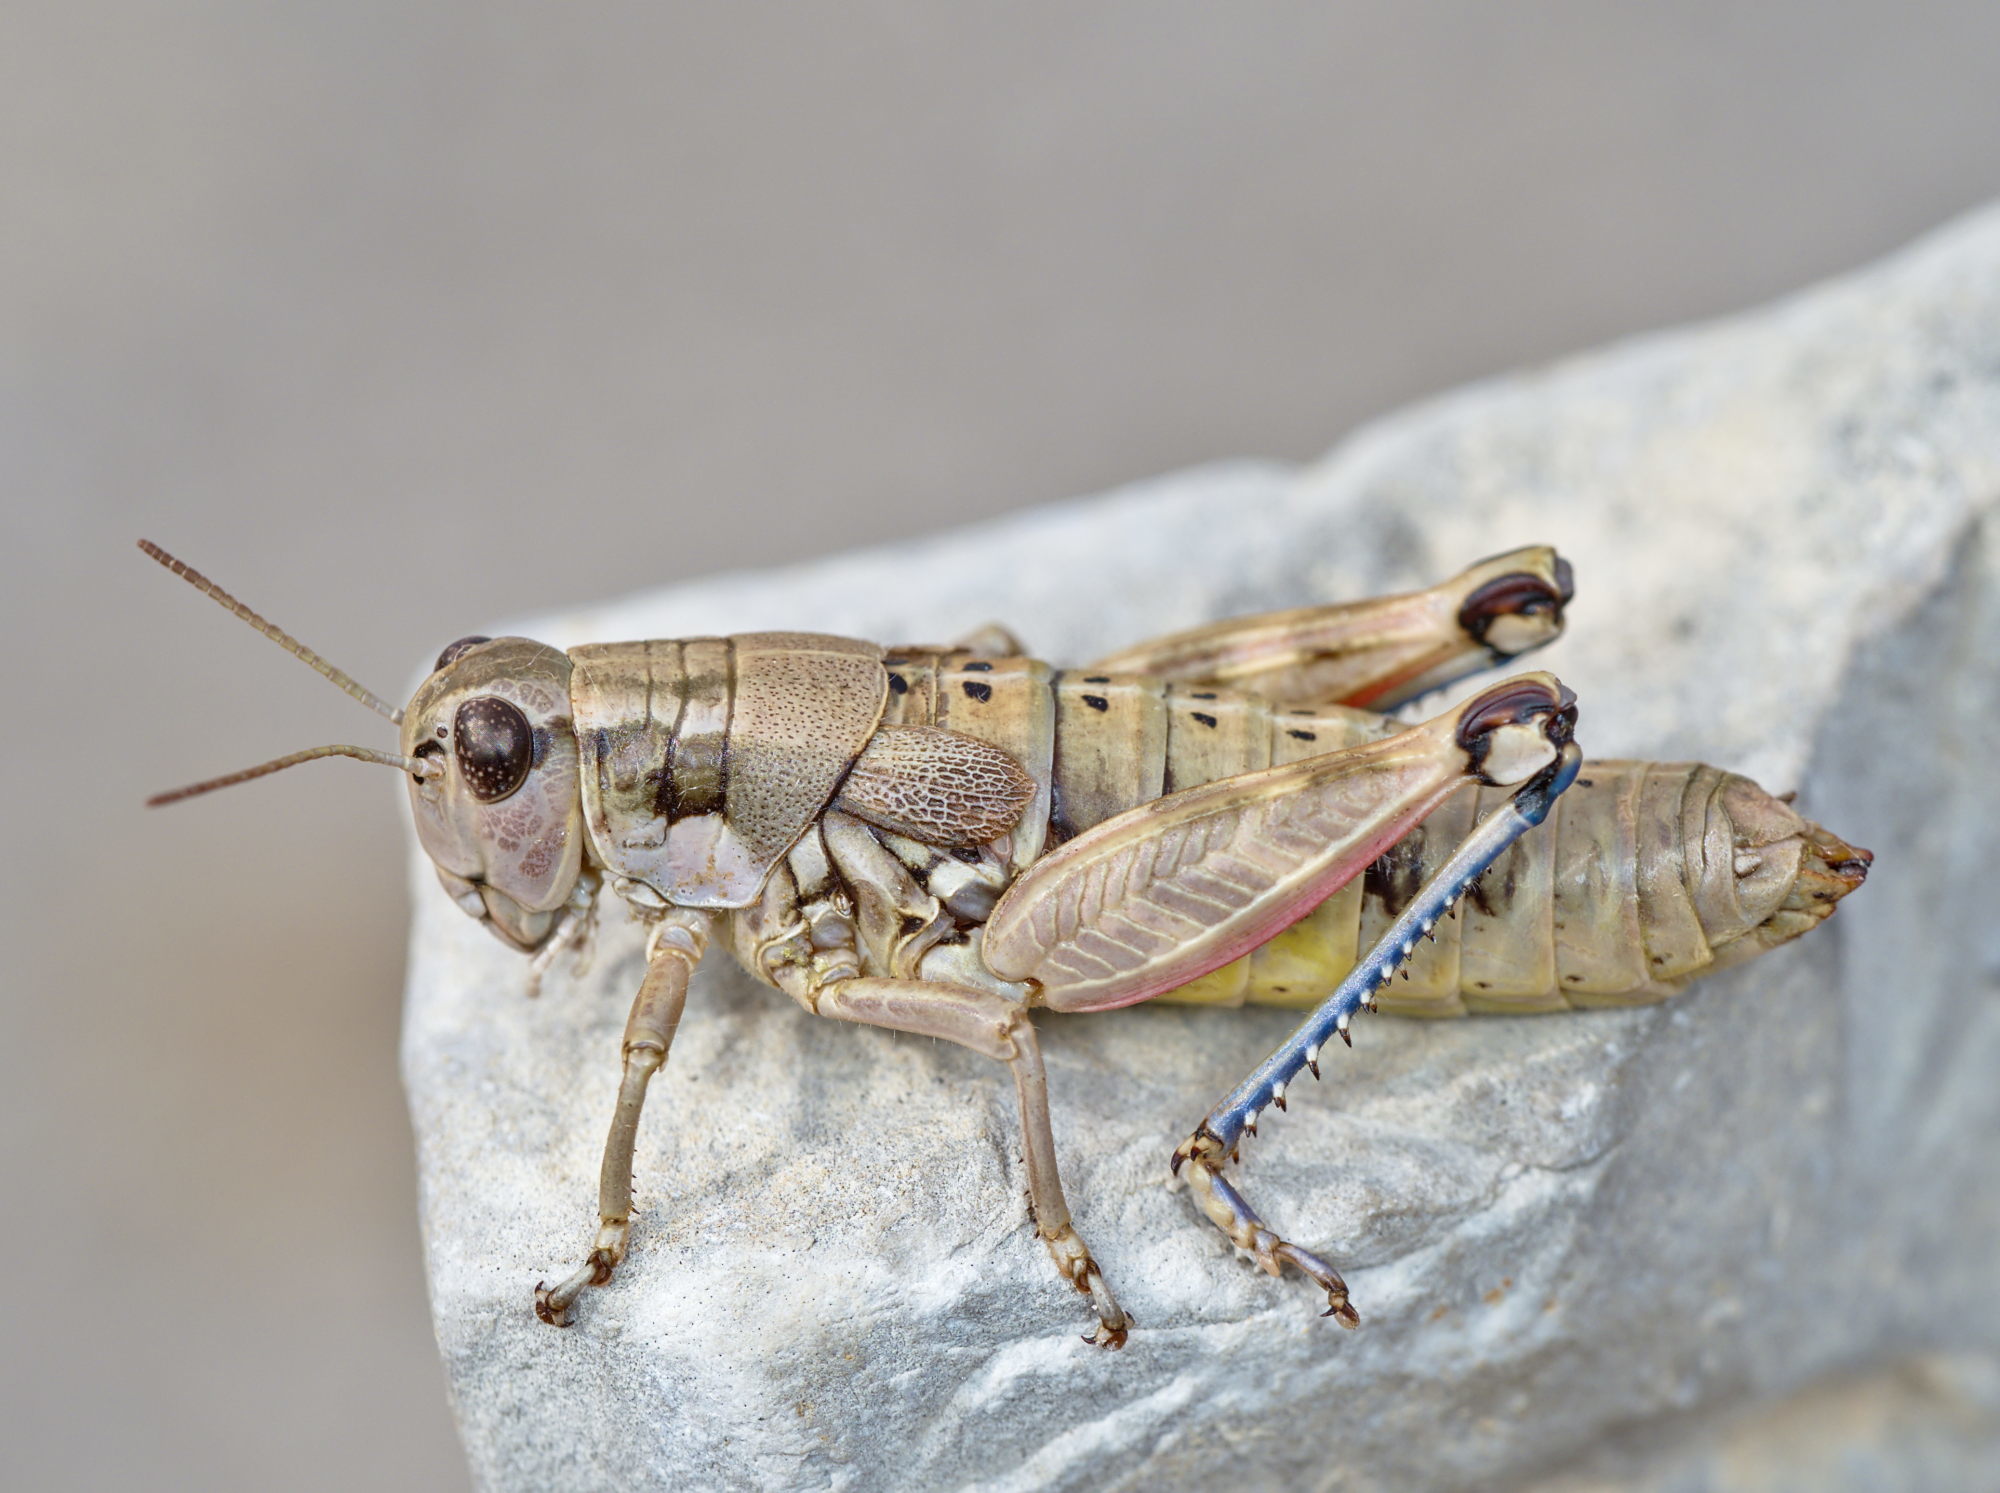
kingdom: Animalia
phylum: Arthropoda
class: Insecta
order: Orthoptera
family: Acrididae
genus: Podisma
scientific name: Podisma amedegnatoae
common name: Ventoux mountain grasshopper
